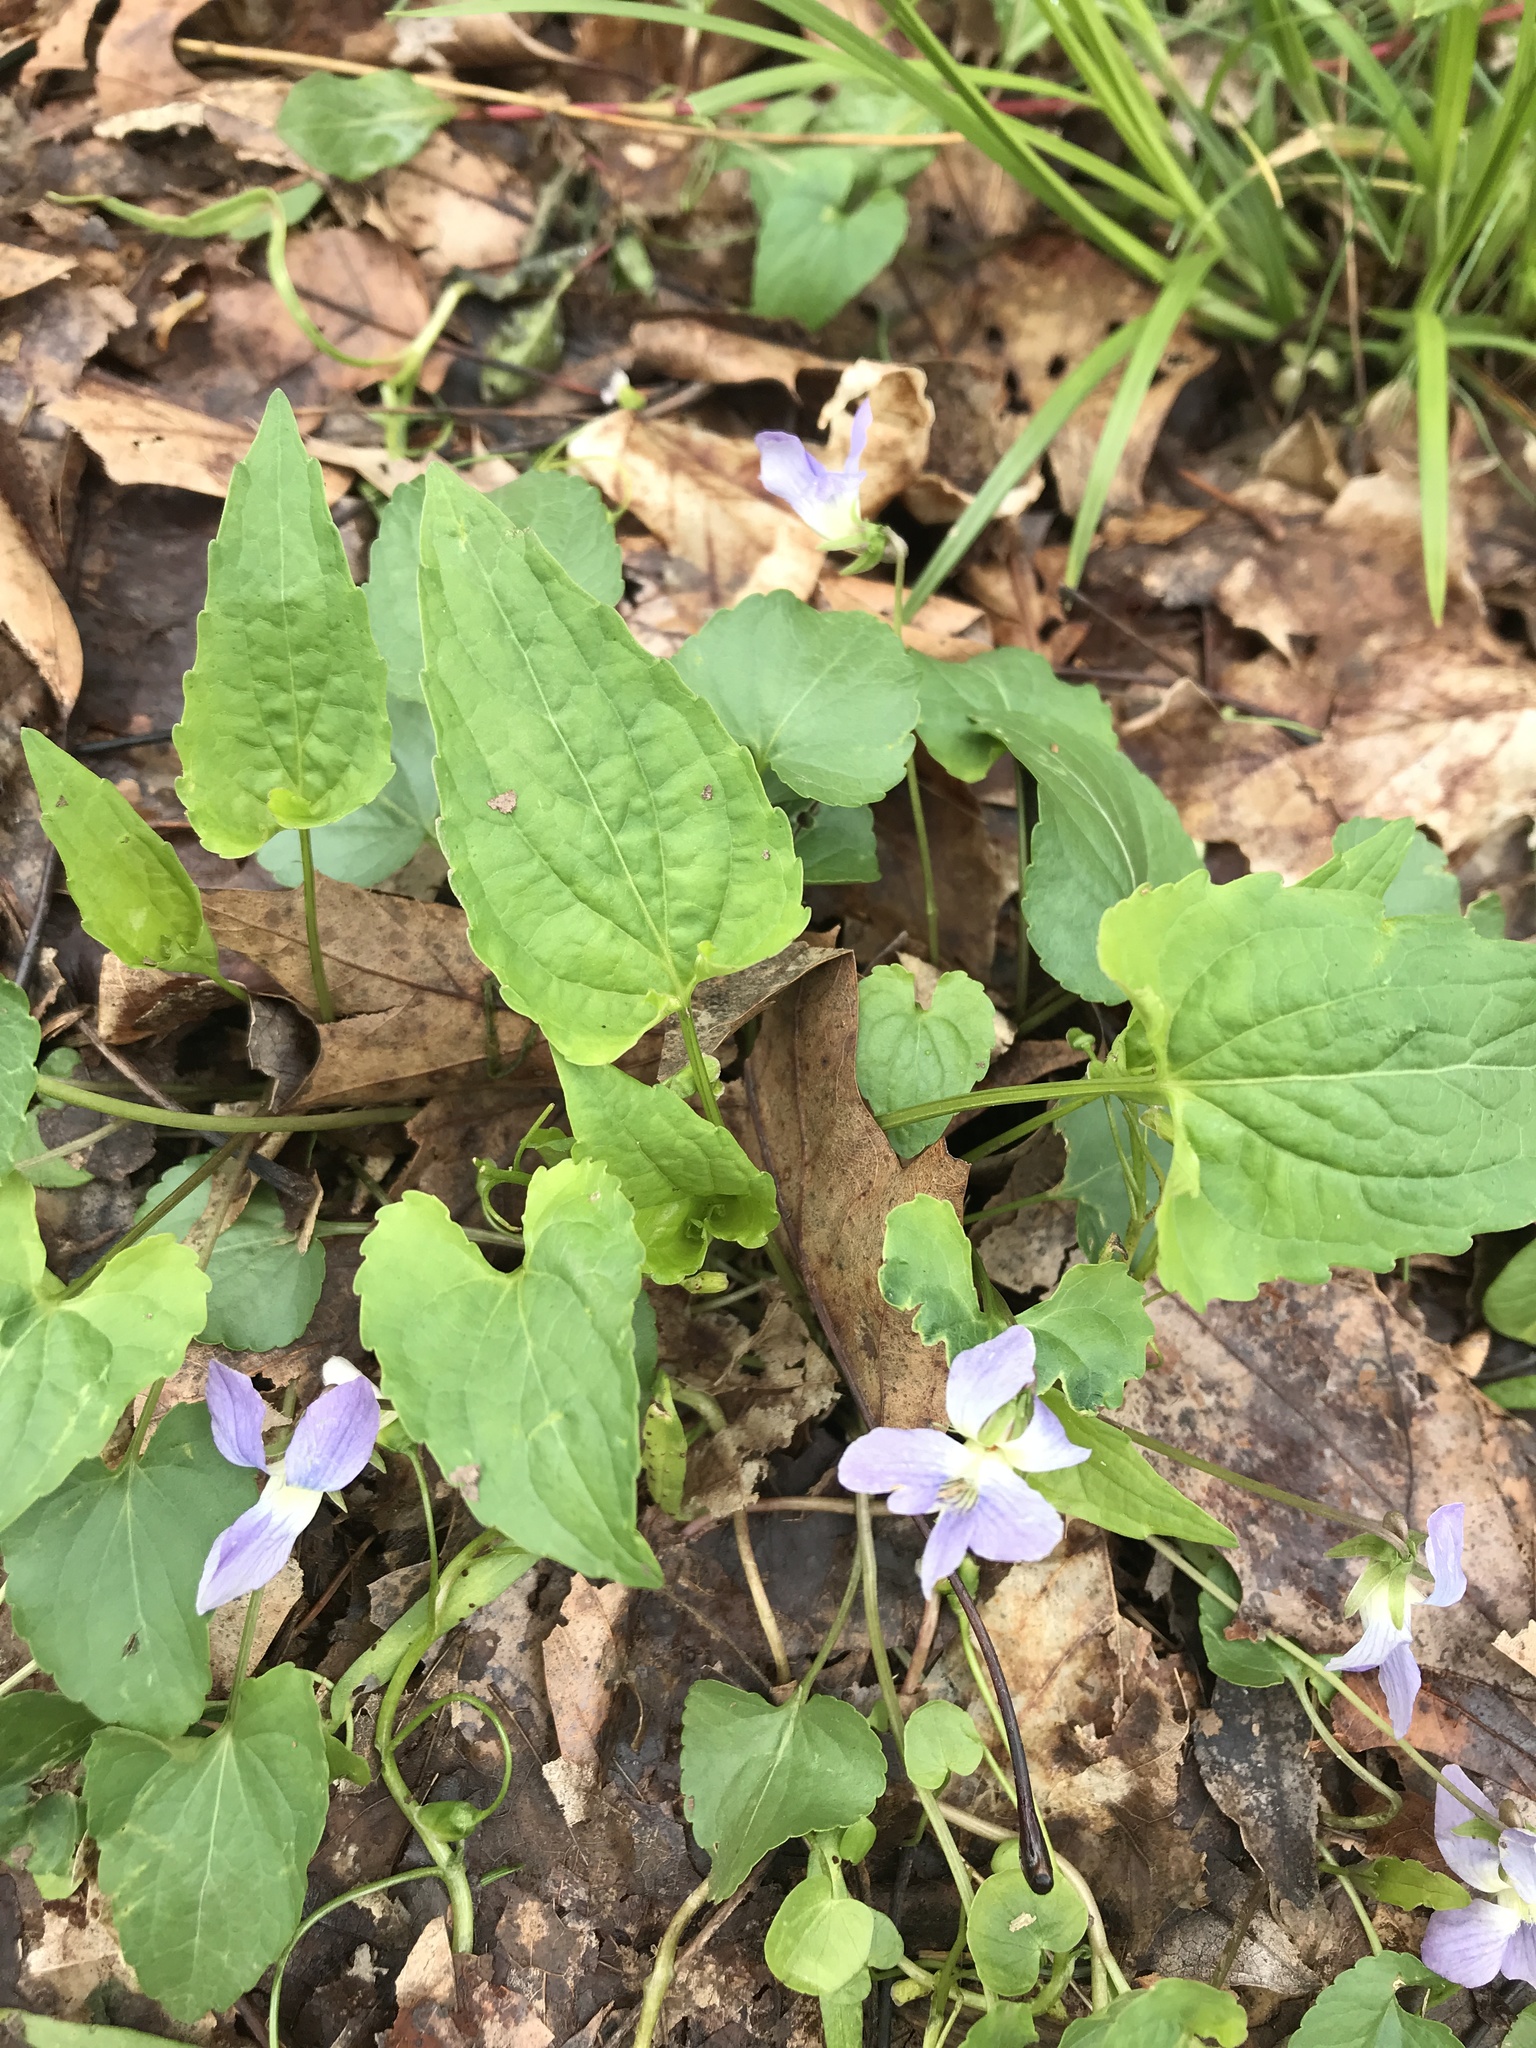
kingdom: Plantae
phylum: Tracheophyta
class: Magnoliopsida
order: Malpighiales
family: Violaceae
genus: Viola
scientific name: Viola affinis
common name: Leconte's violet
